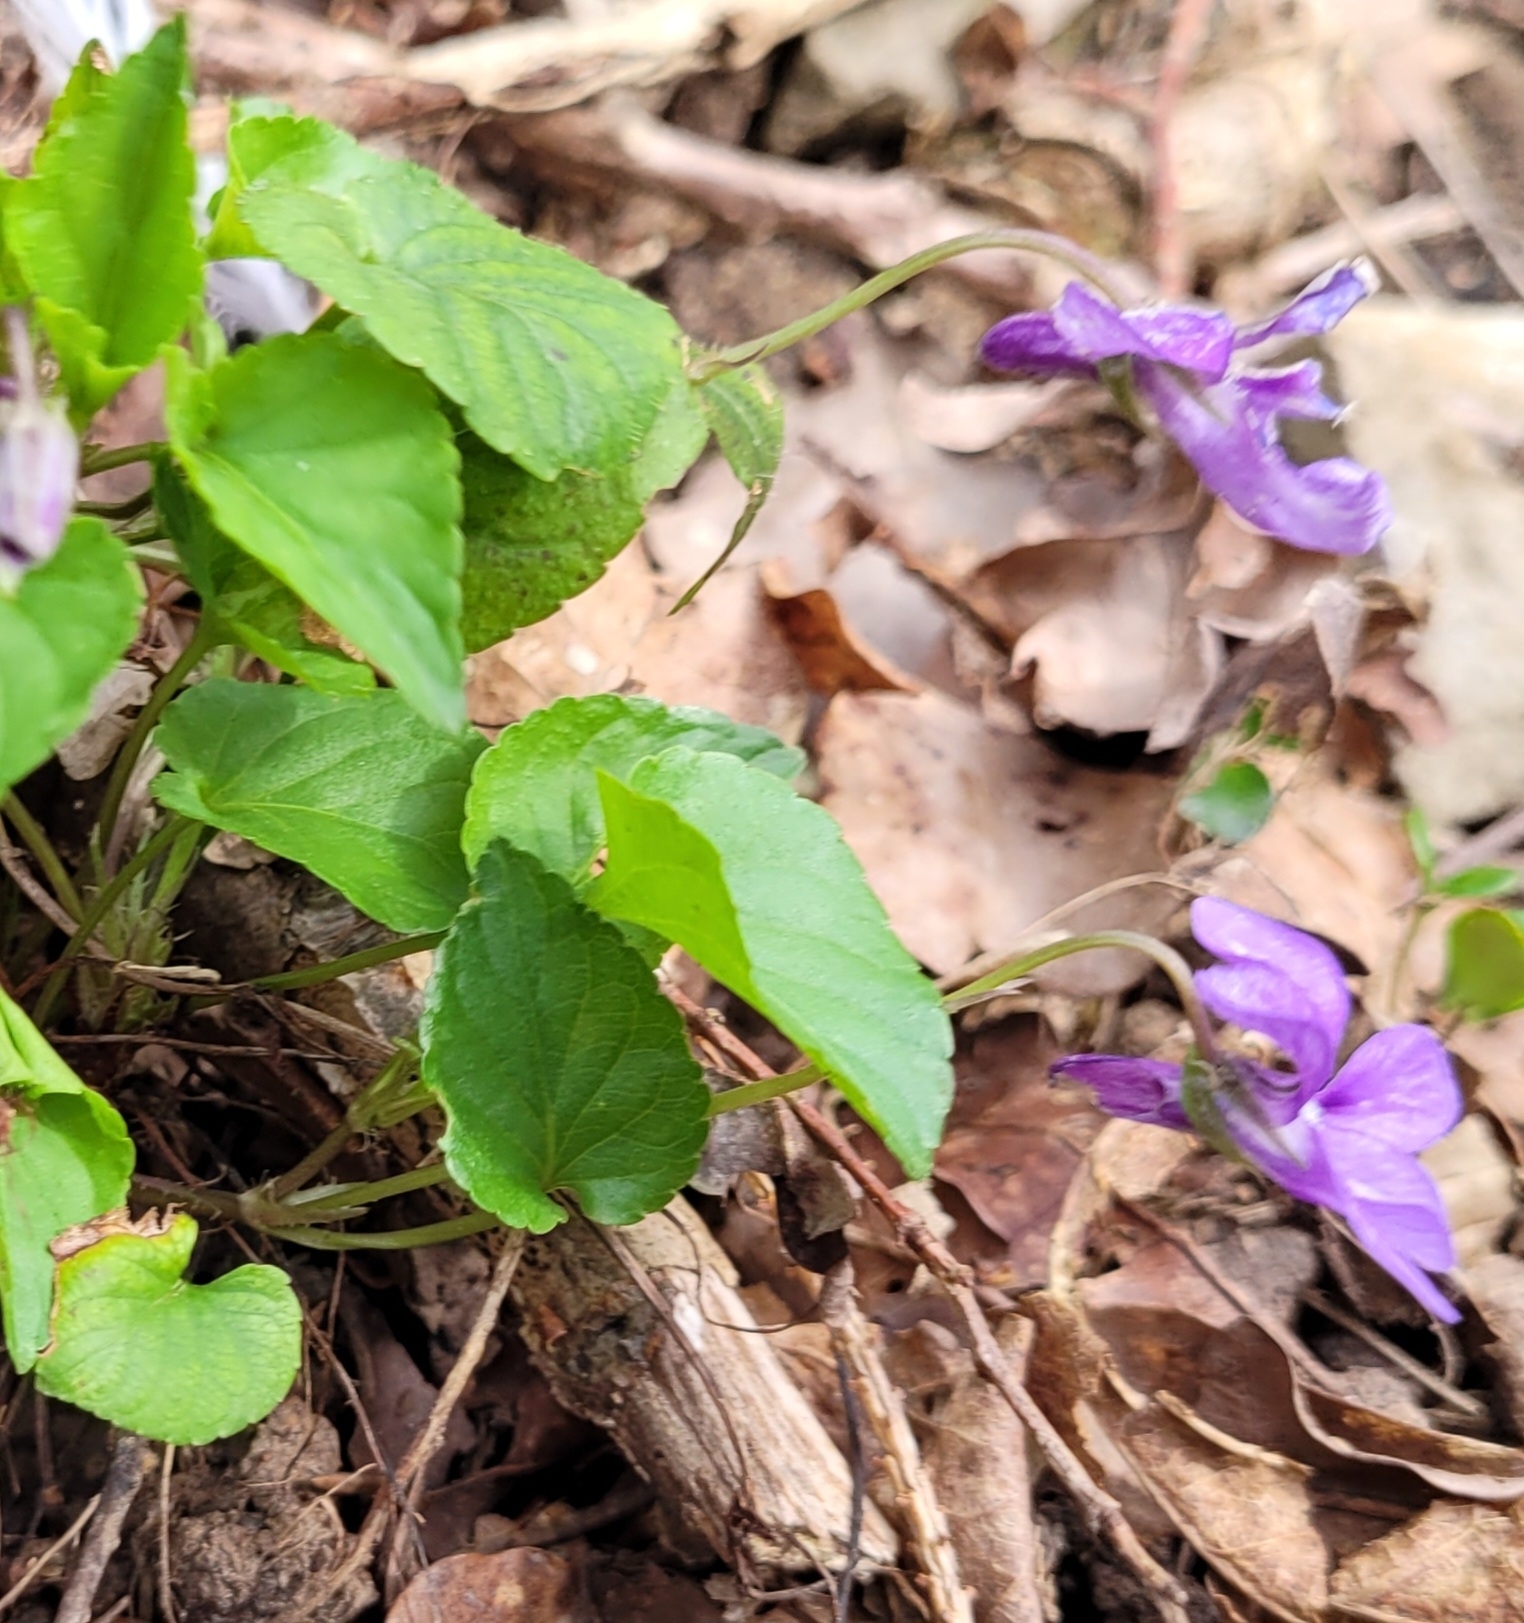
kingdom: Plantae
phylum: Tracheophyta
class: Magnoliopsida
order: Malpighiales
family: Violaceae
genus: Viola
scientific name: Viola reichenbachiana
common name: Early dog-violet
